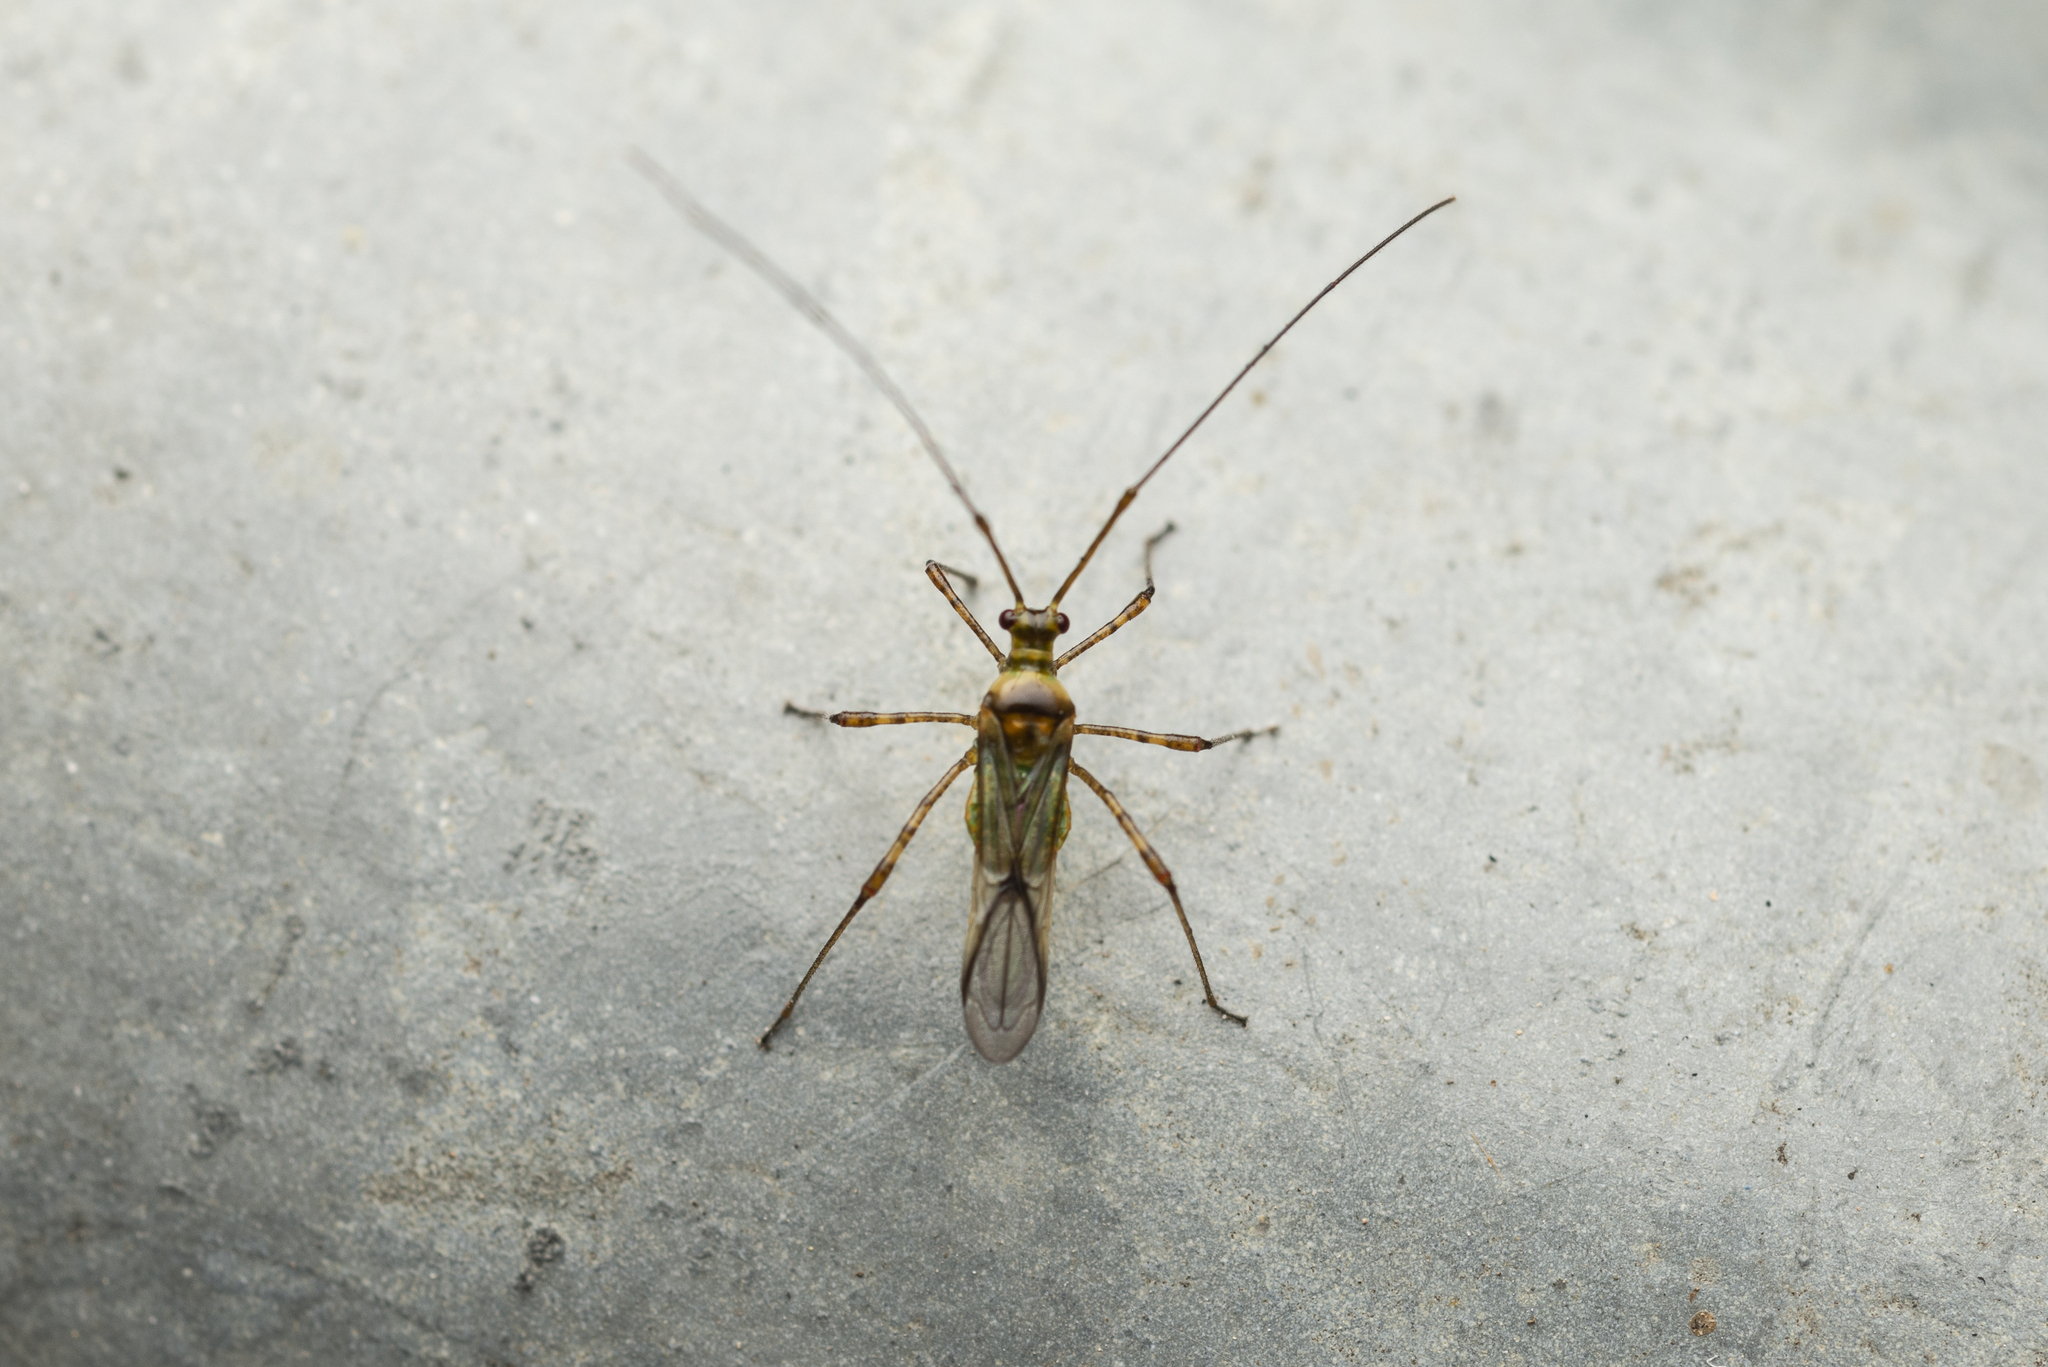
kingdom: Animalia
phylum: Arthropoda
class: Insecta
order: Hemiptera
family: Miridae
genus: Helopeltis
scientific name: Helopeltis theivora
